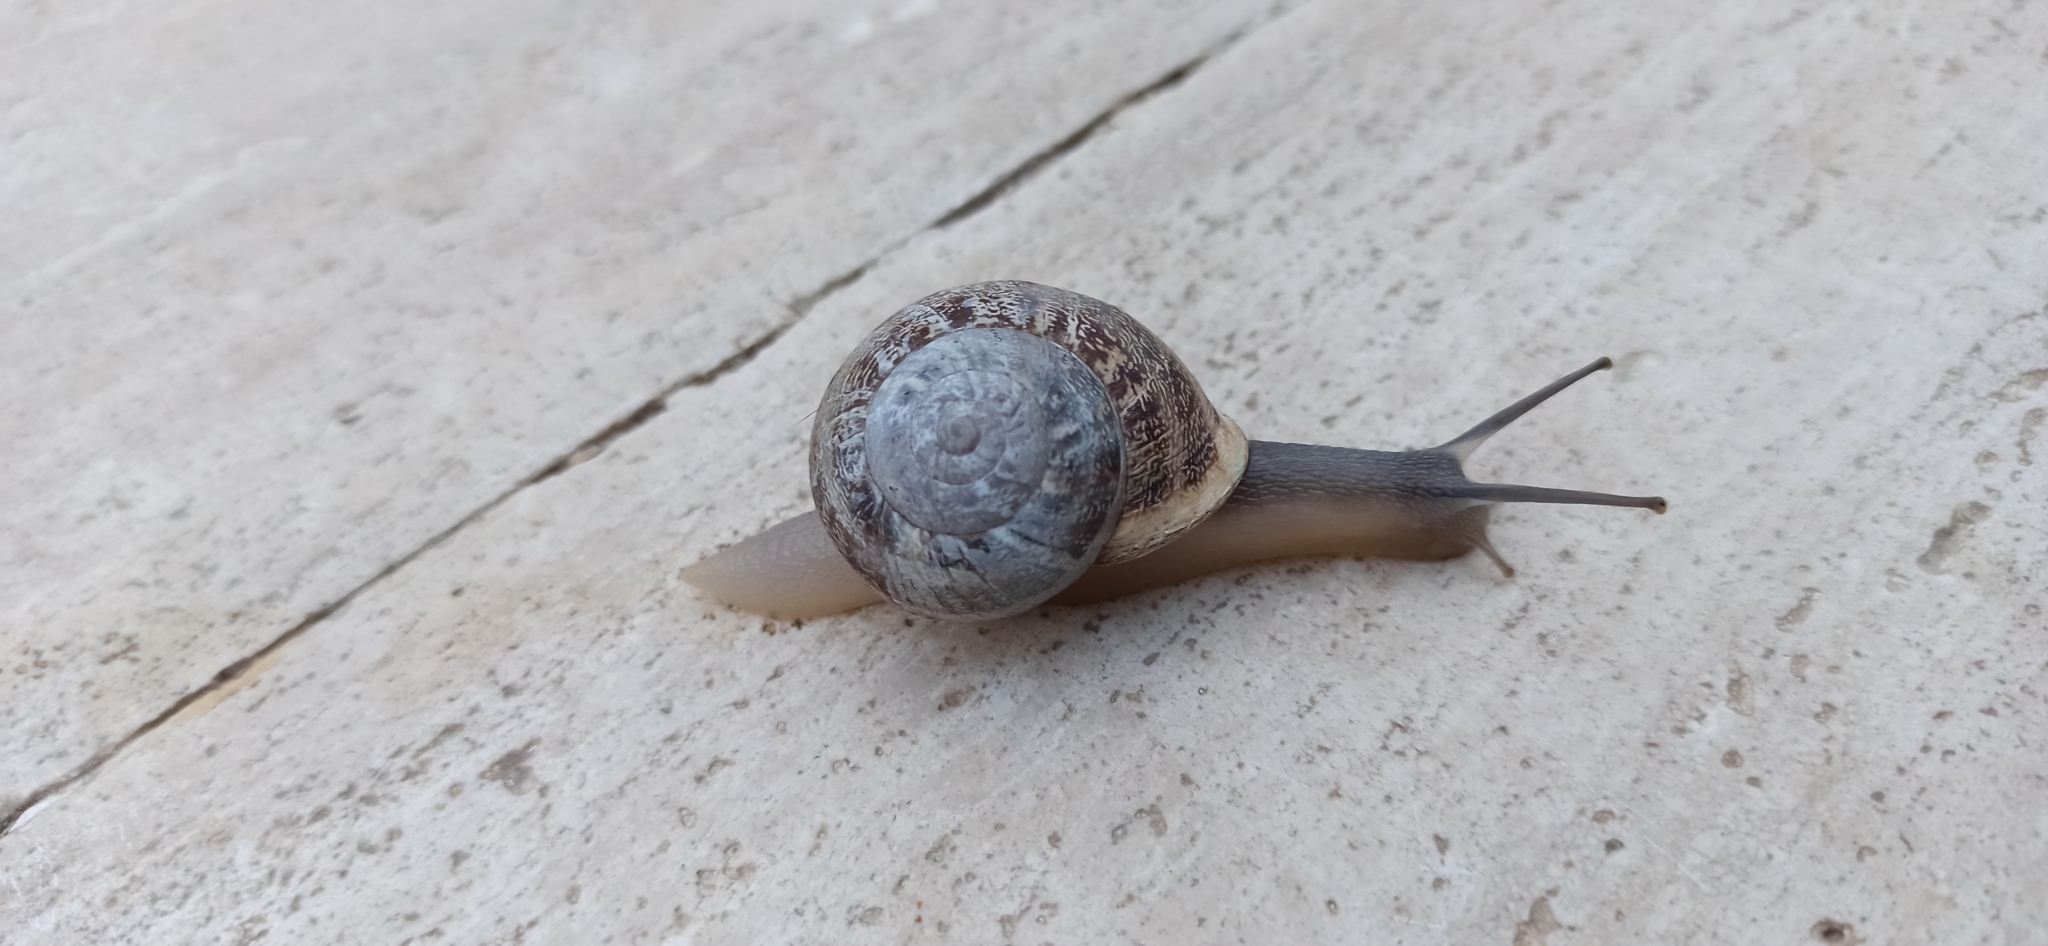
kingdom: Animalia
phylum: Mollusca
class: Gastropoda
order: Stylommatophora
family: Helicidae
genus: Eobania
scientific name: Eobania vermiculata
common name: Chocolateband snail
